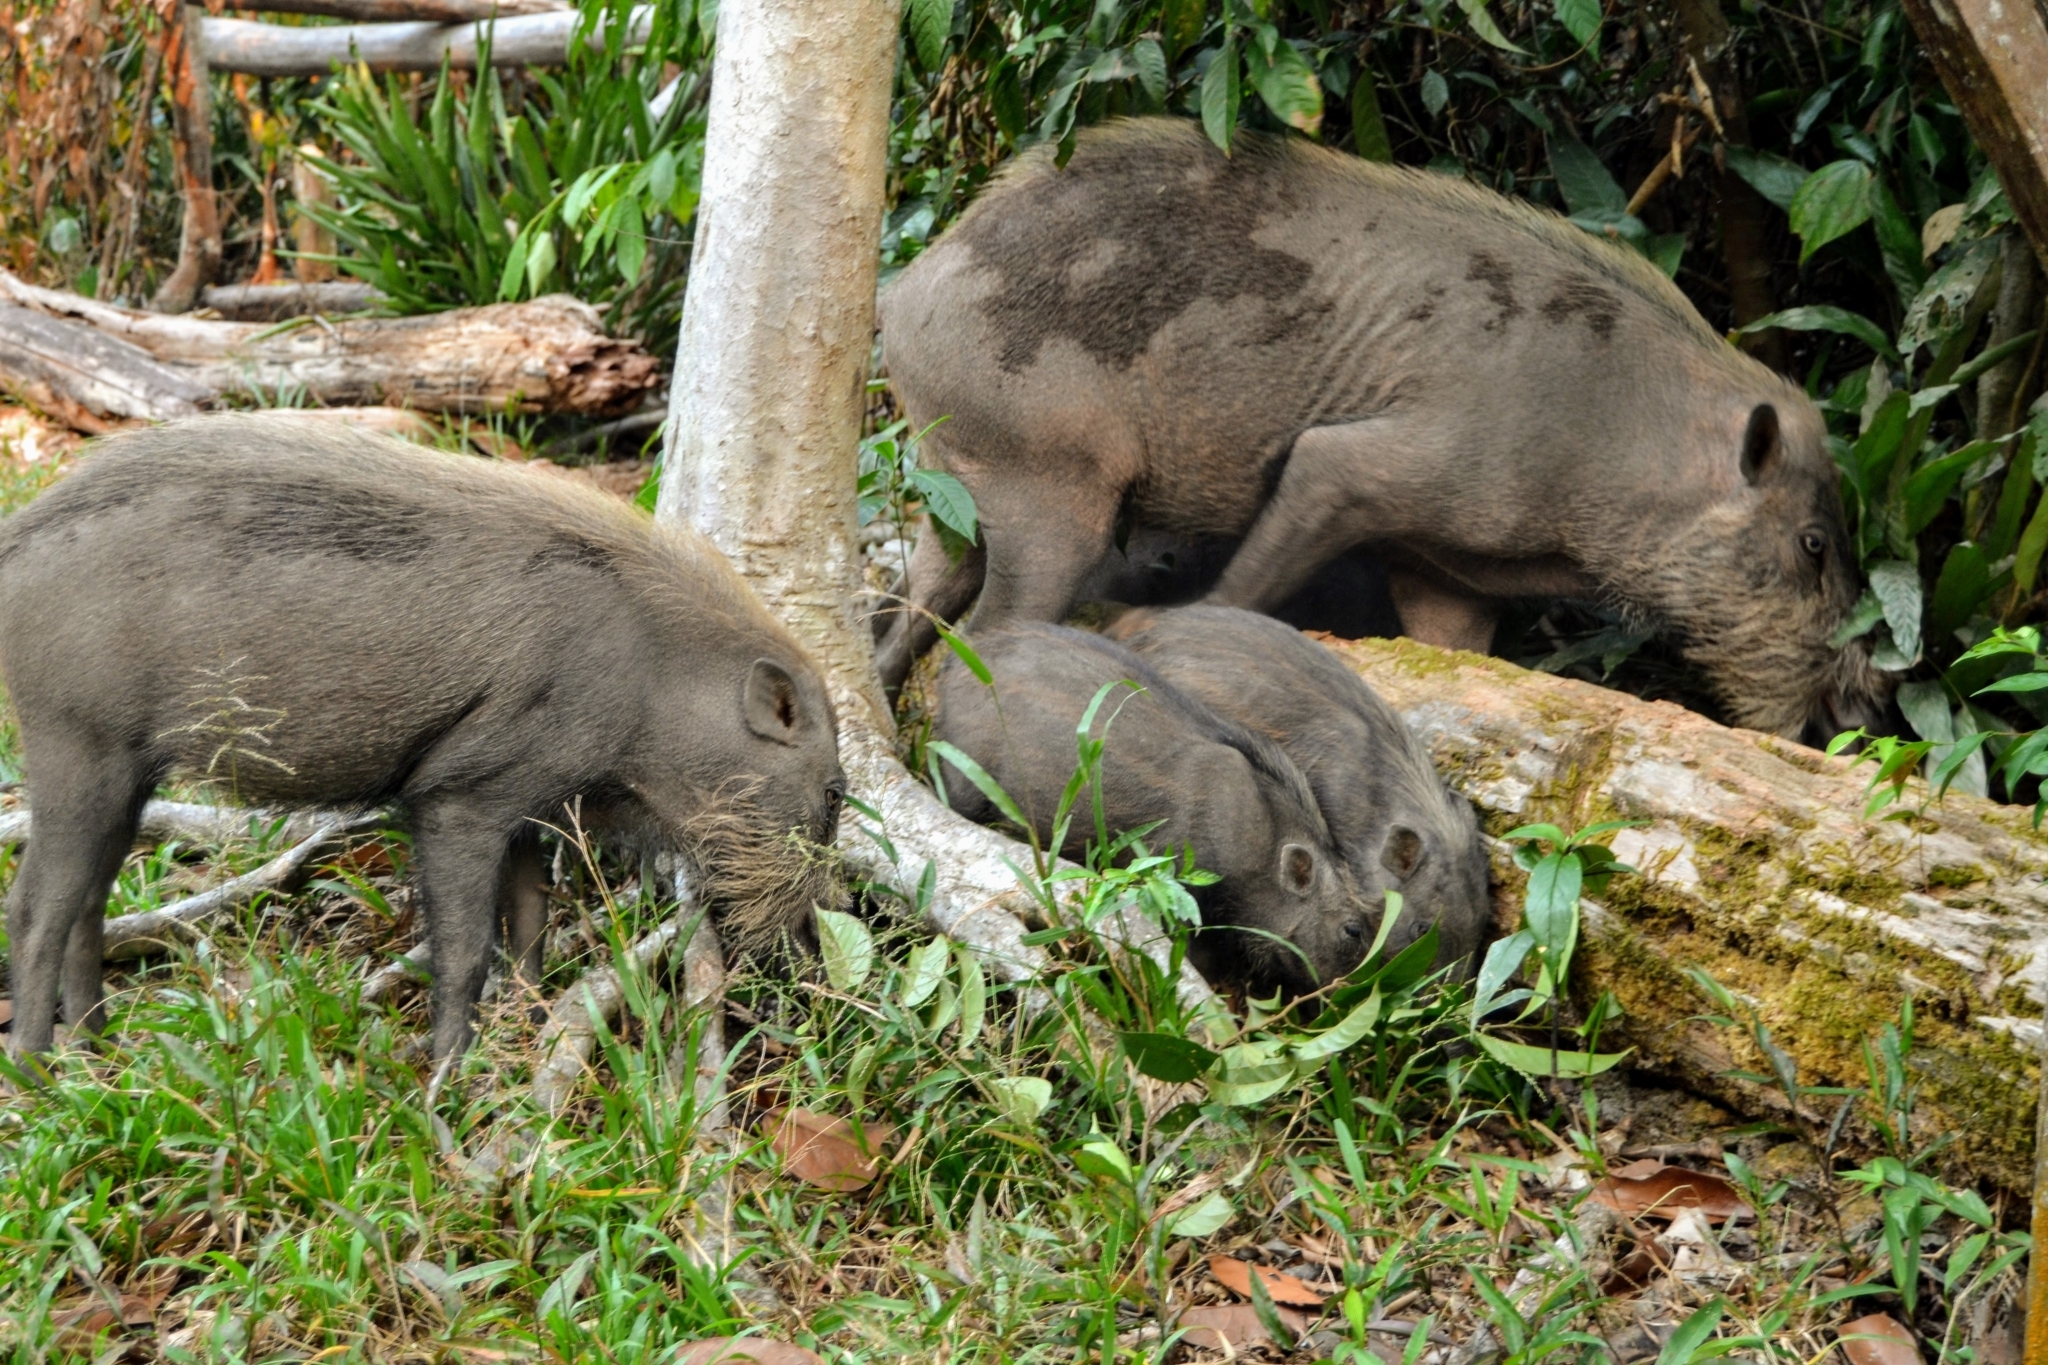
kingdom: Animalia
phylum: Chordata
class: Mammalia
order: Artiodactyla
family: Suidae
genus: Sus
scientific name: Sus barbatus
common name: Bearded pig
